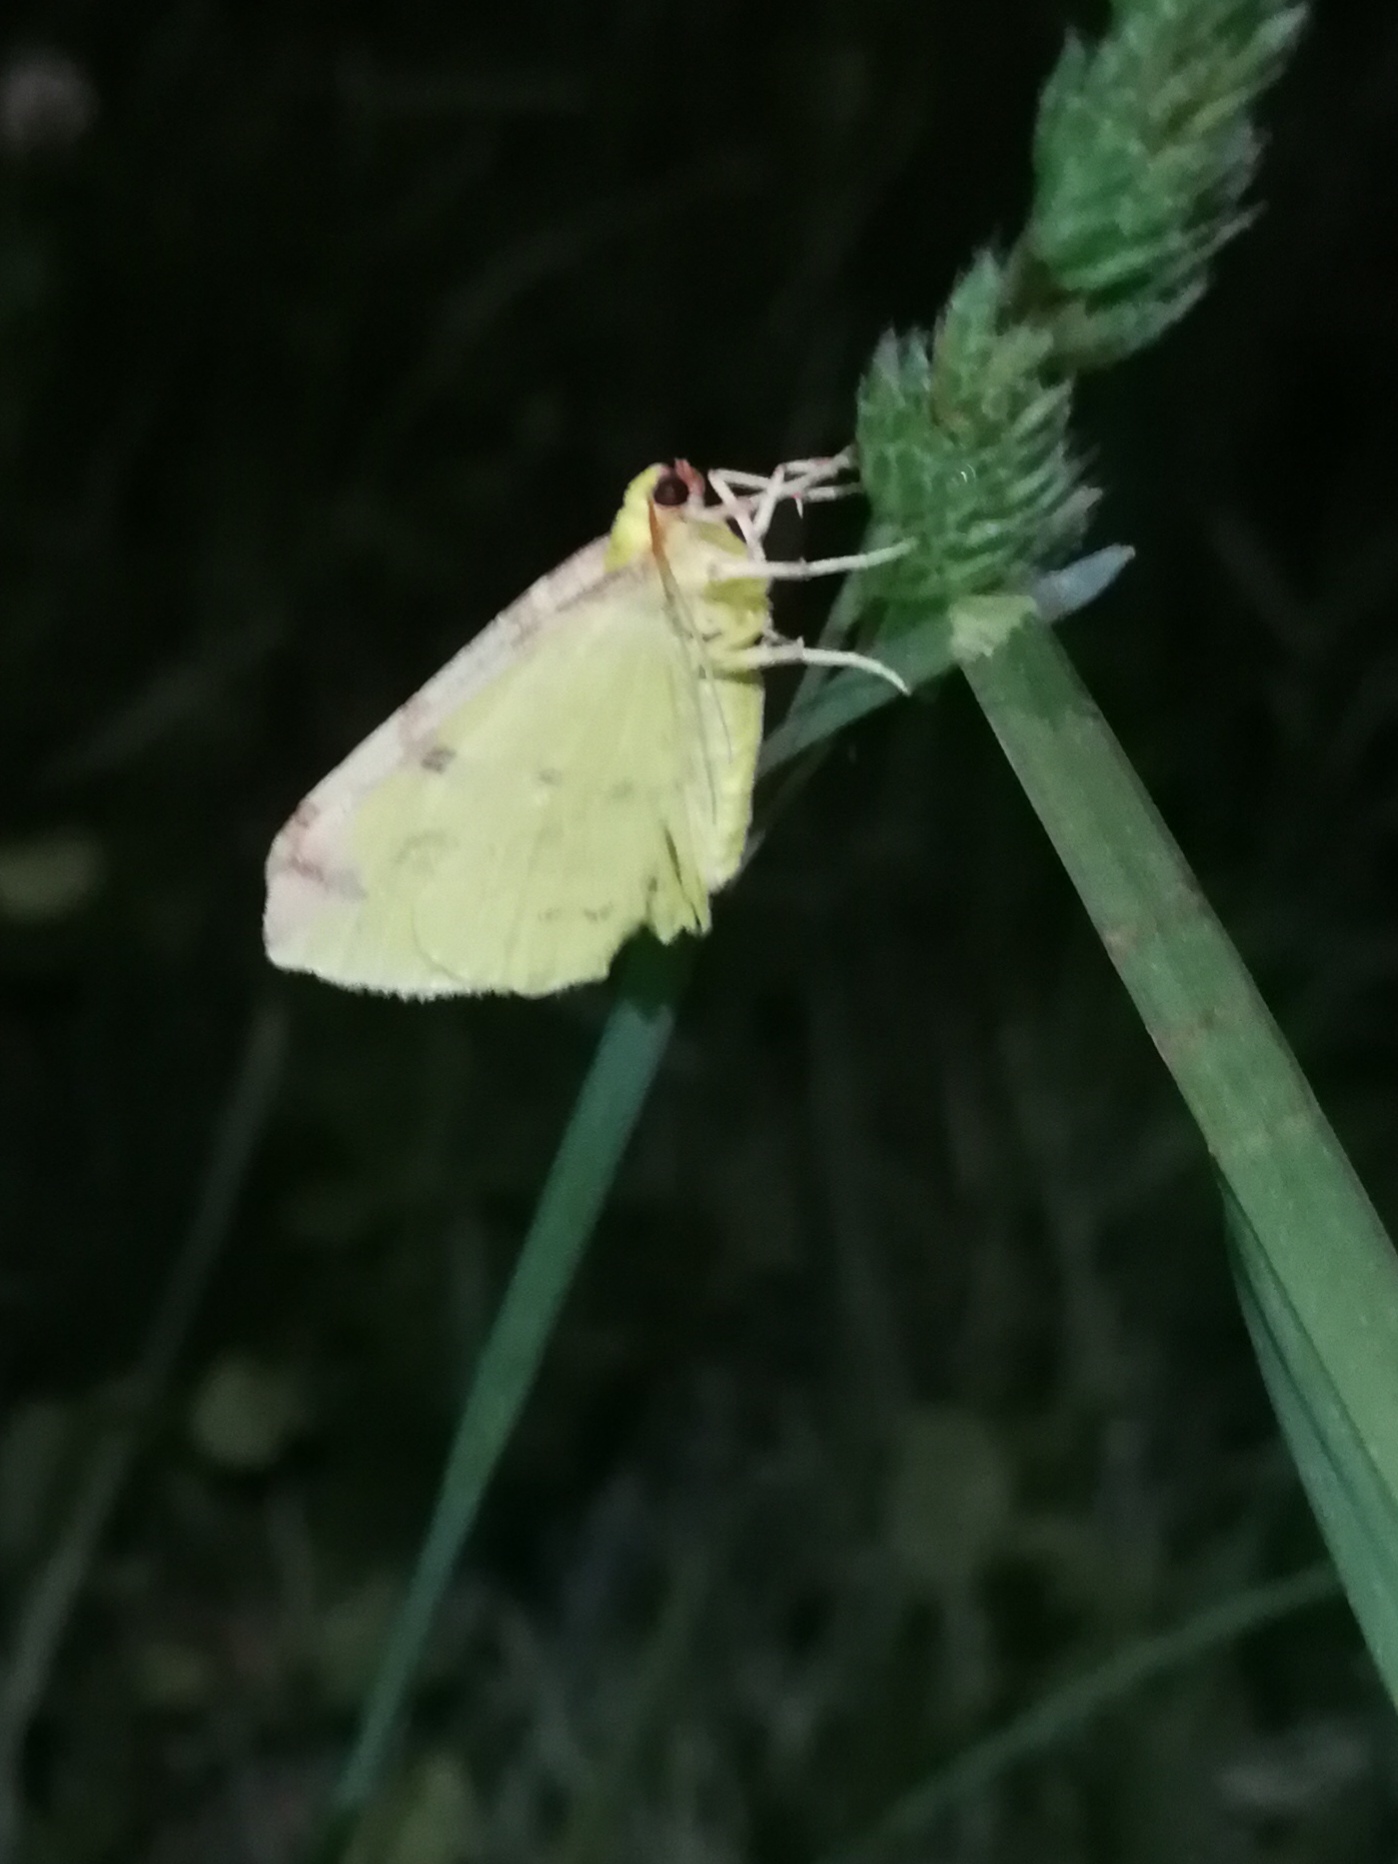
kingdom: Animalia
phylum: Arthropoda
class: Insecta
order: Lepidoptera
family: Geometridae
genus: Opisthograptis
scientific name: Opisthograptis luteolata
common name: Brimstone moth
